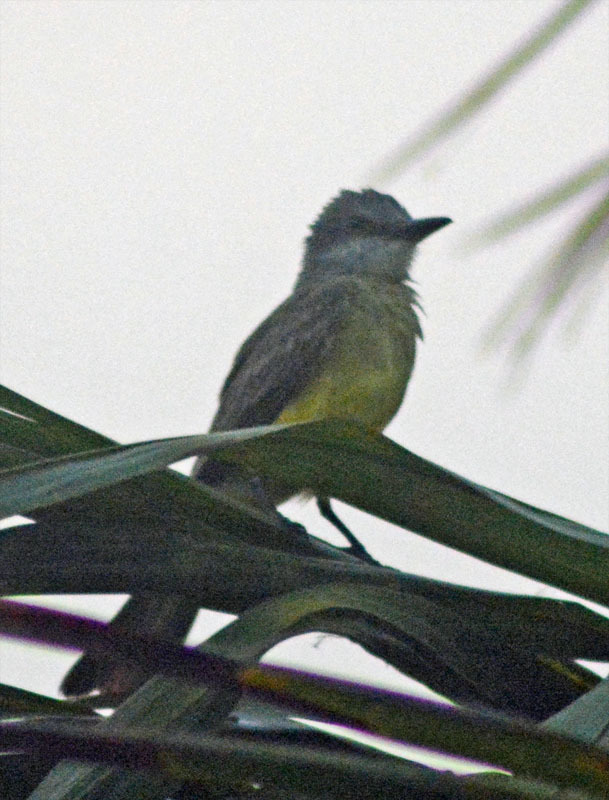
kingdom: Animalia
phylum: Chordata
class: Aves
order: Passeriformes
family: Tyrannidae
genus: Tyrannus
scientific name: Tyrannus melancholicus
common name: Tropical kingbird
